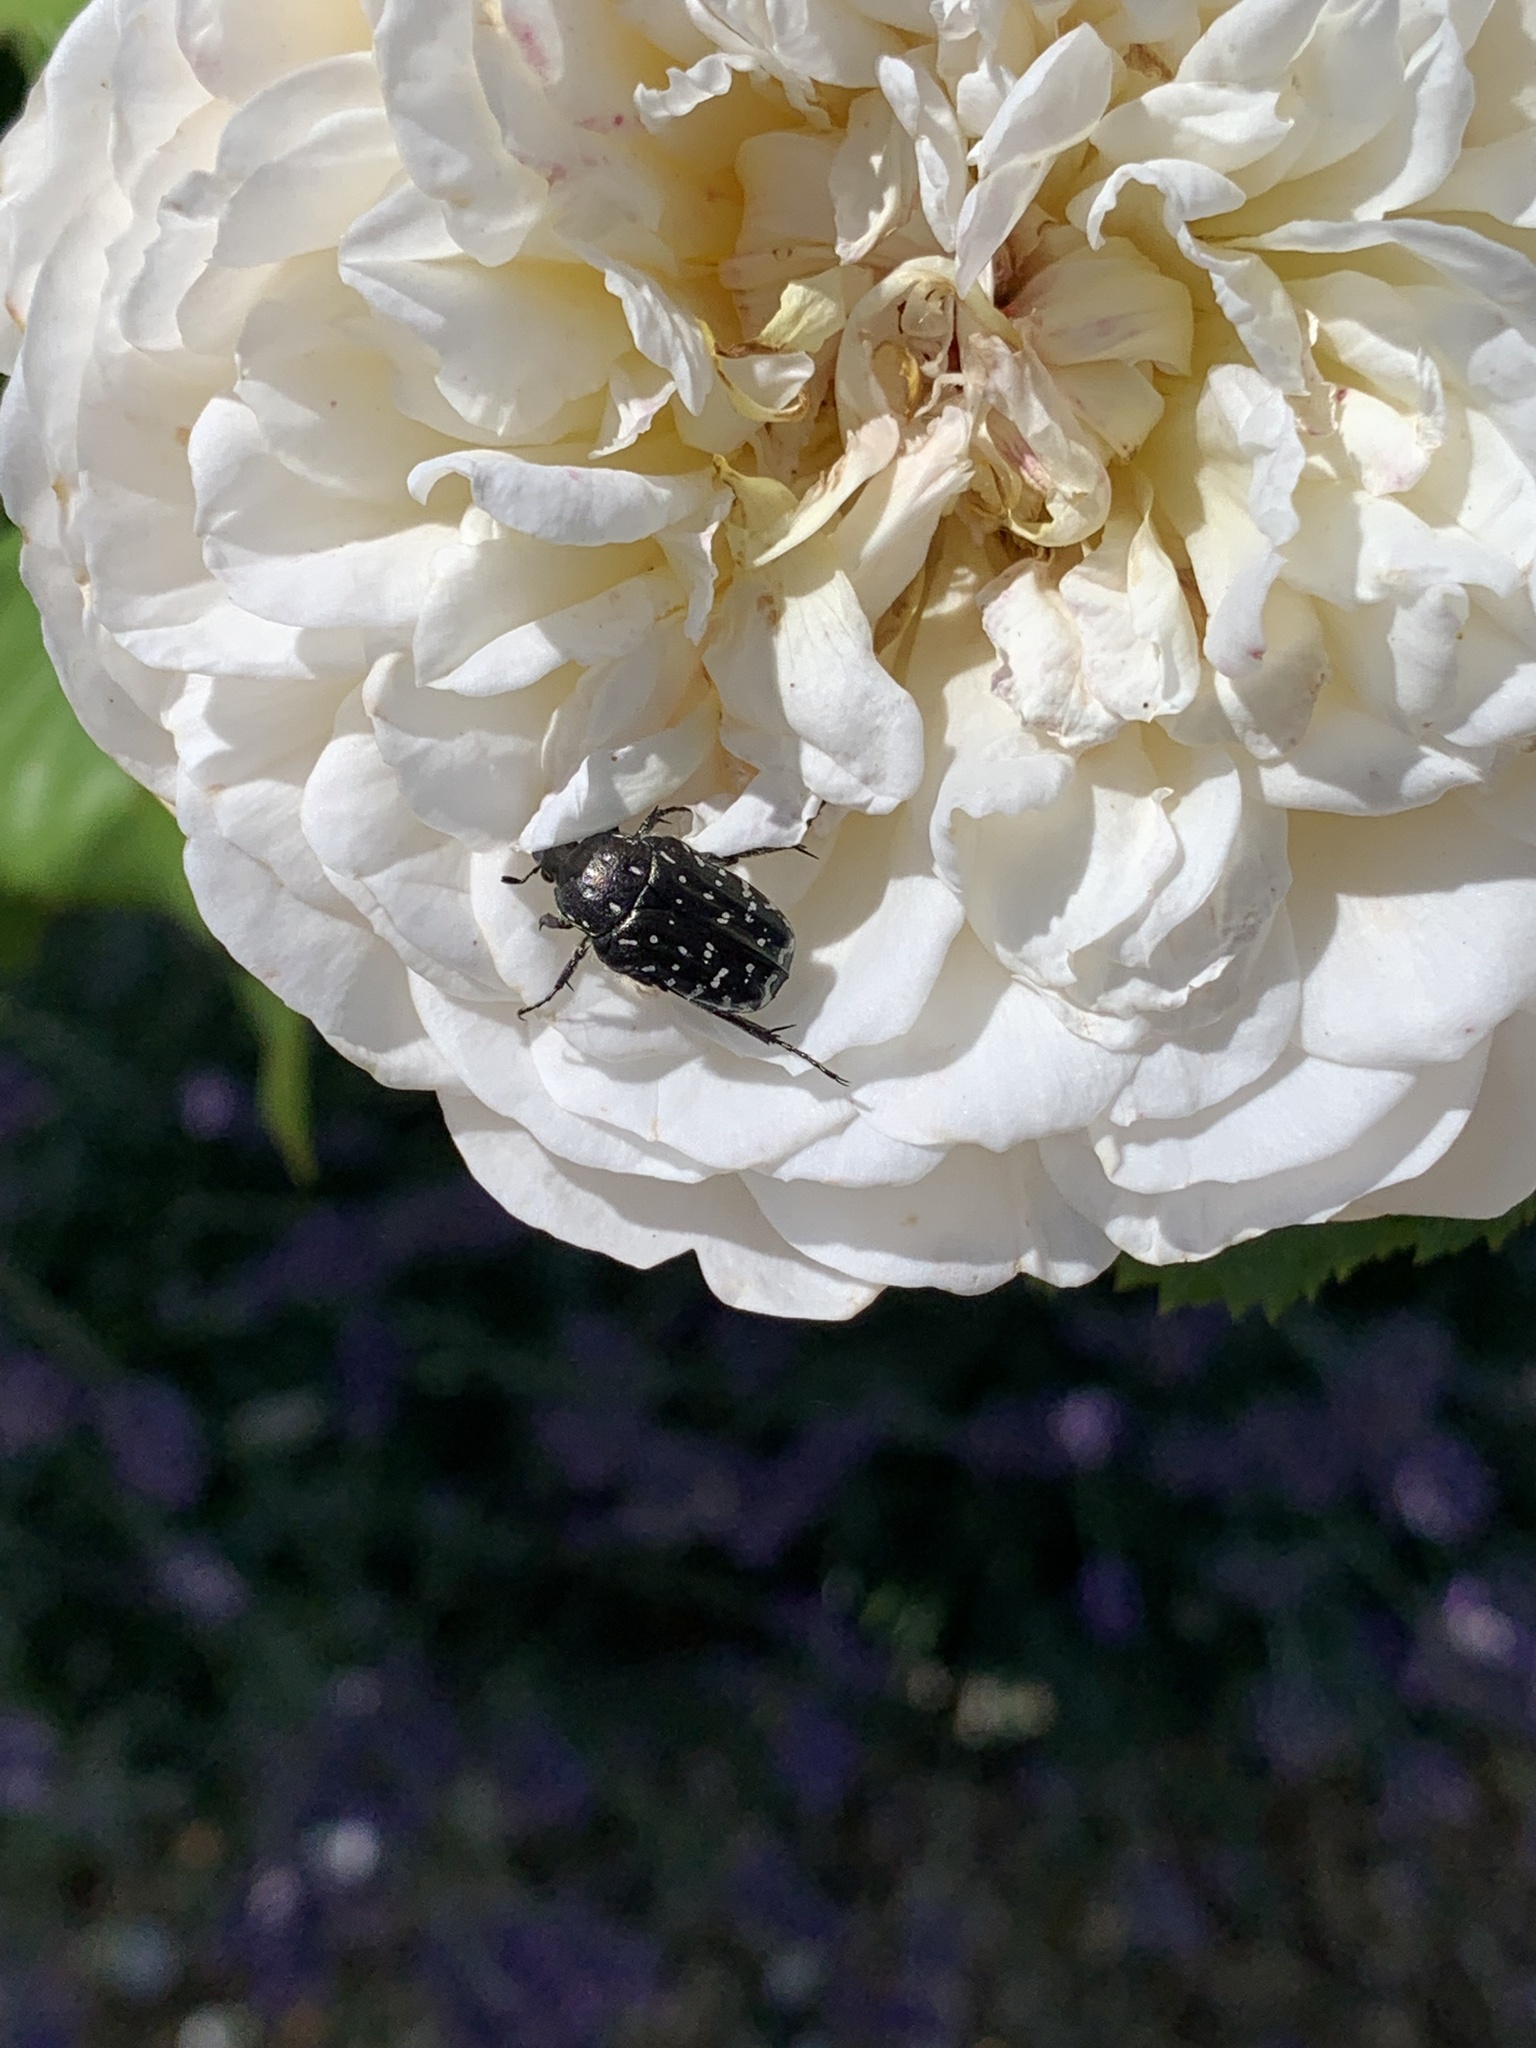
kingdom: Animalia
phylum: Arthropoda
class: Insecta
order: Coleoptera
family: Scarabaeidae
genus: Oxythyrea
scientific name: Oxythyrea funesta
